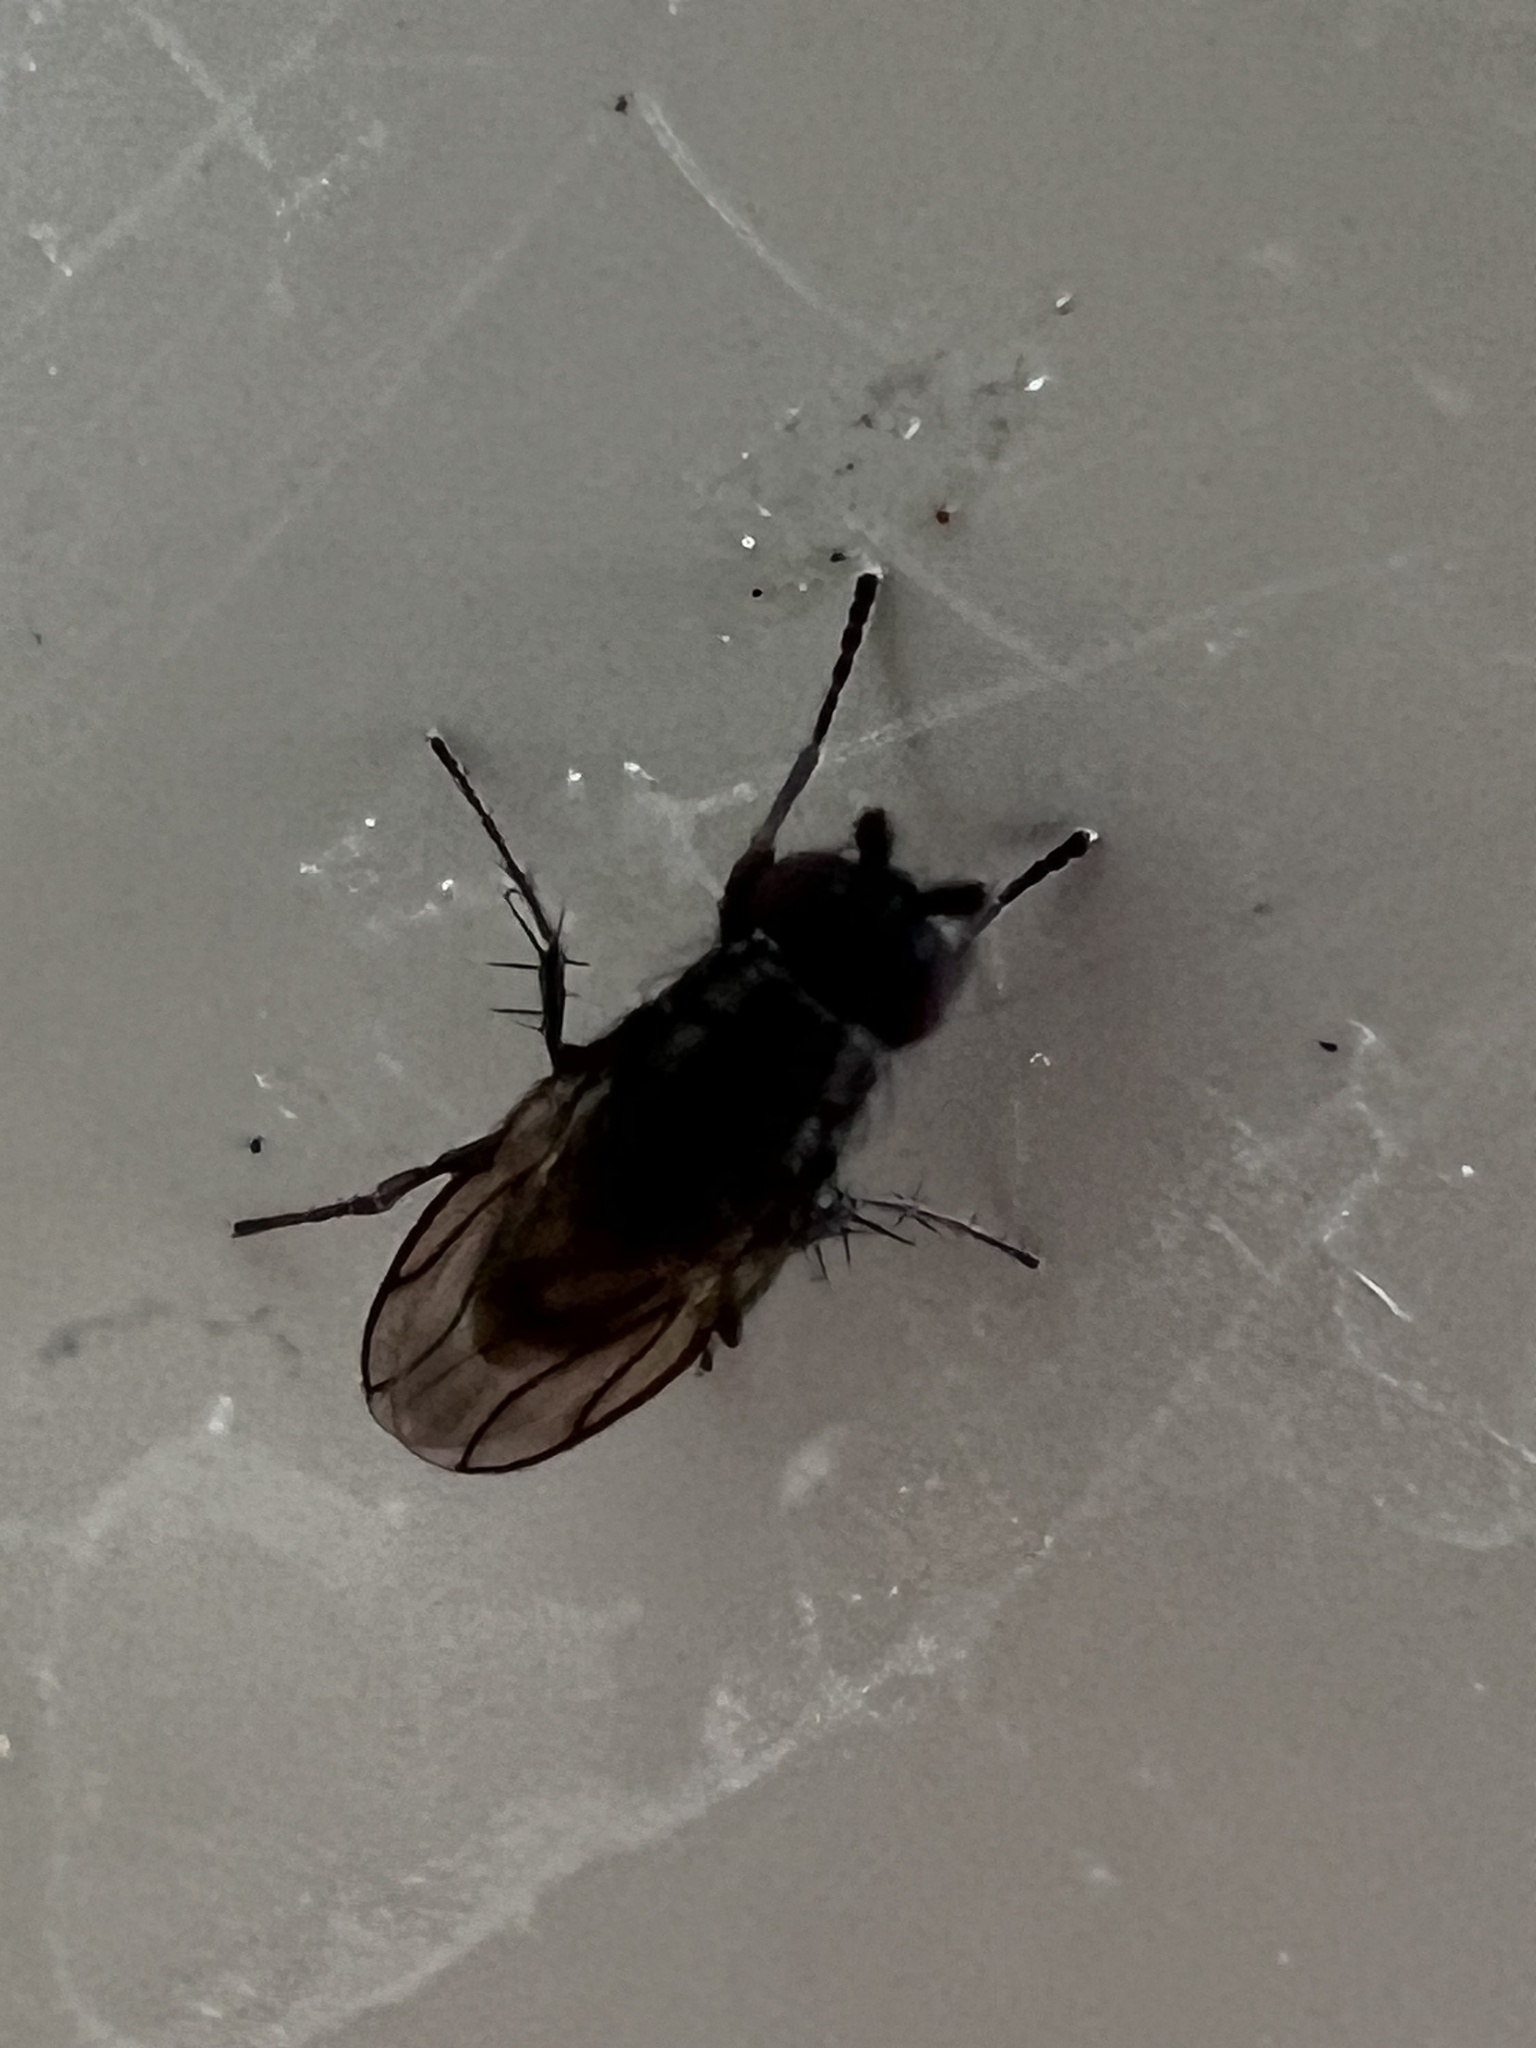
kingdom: Animalia
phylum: Arthropoda
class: Insecta
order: Diptera
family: Sphaeroceridae
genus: Leptocera
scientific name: Leptocera
